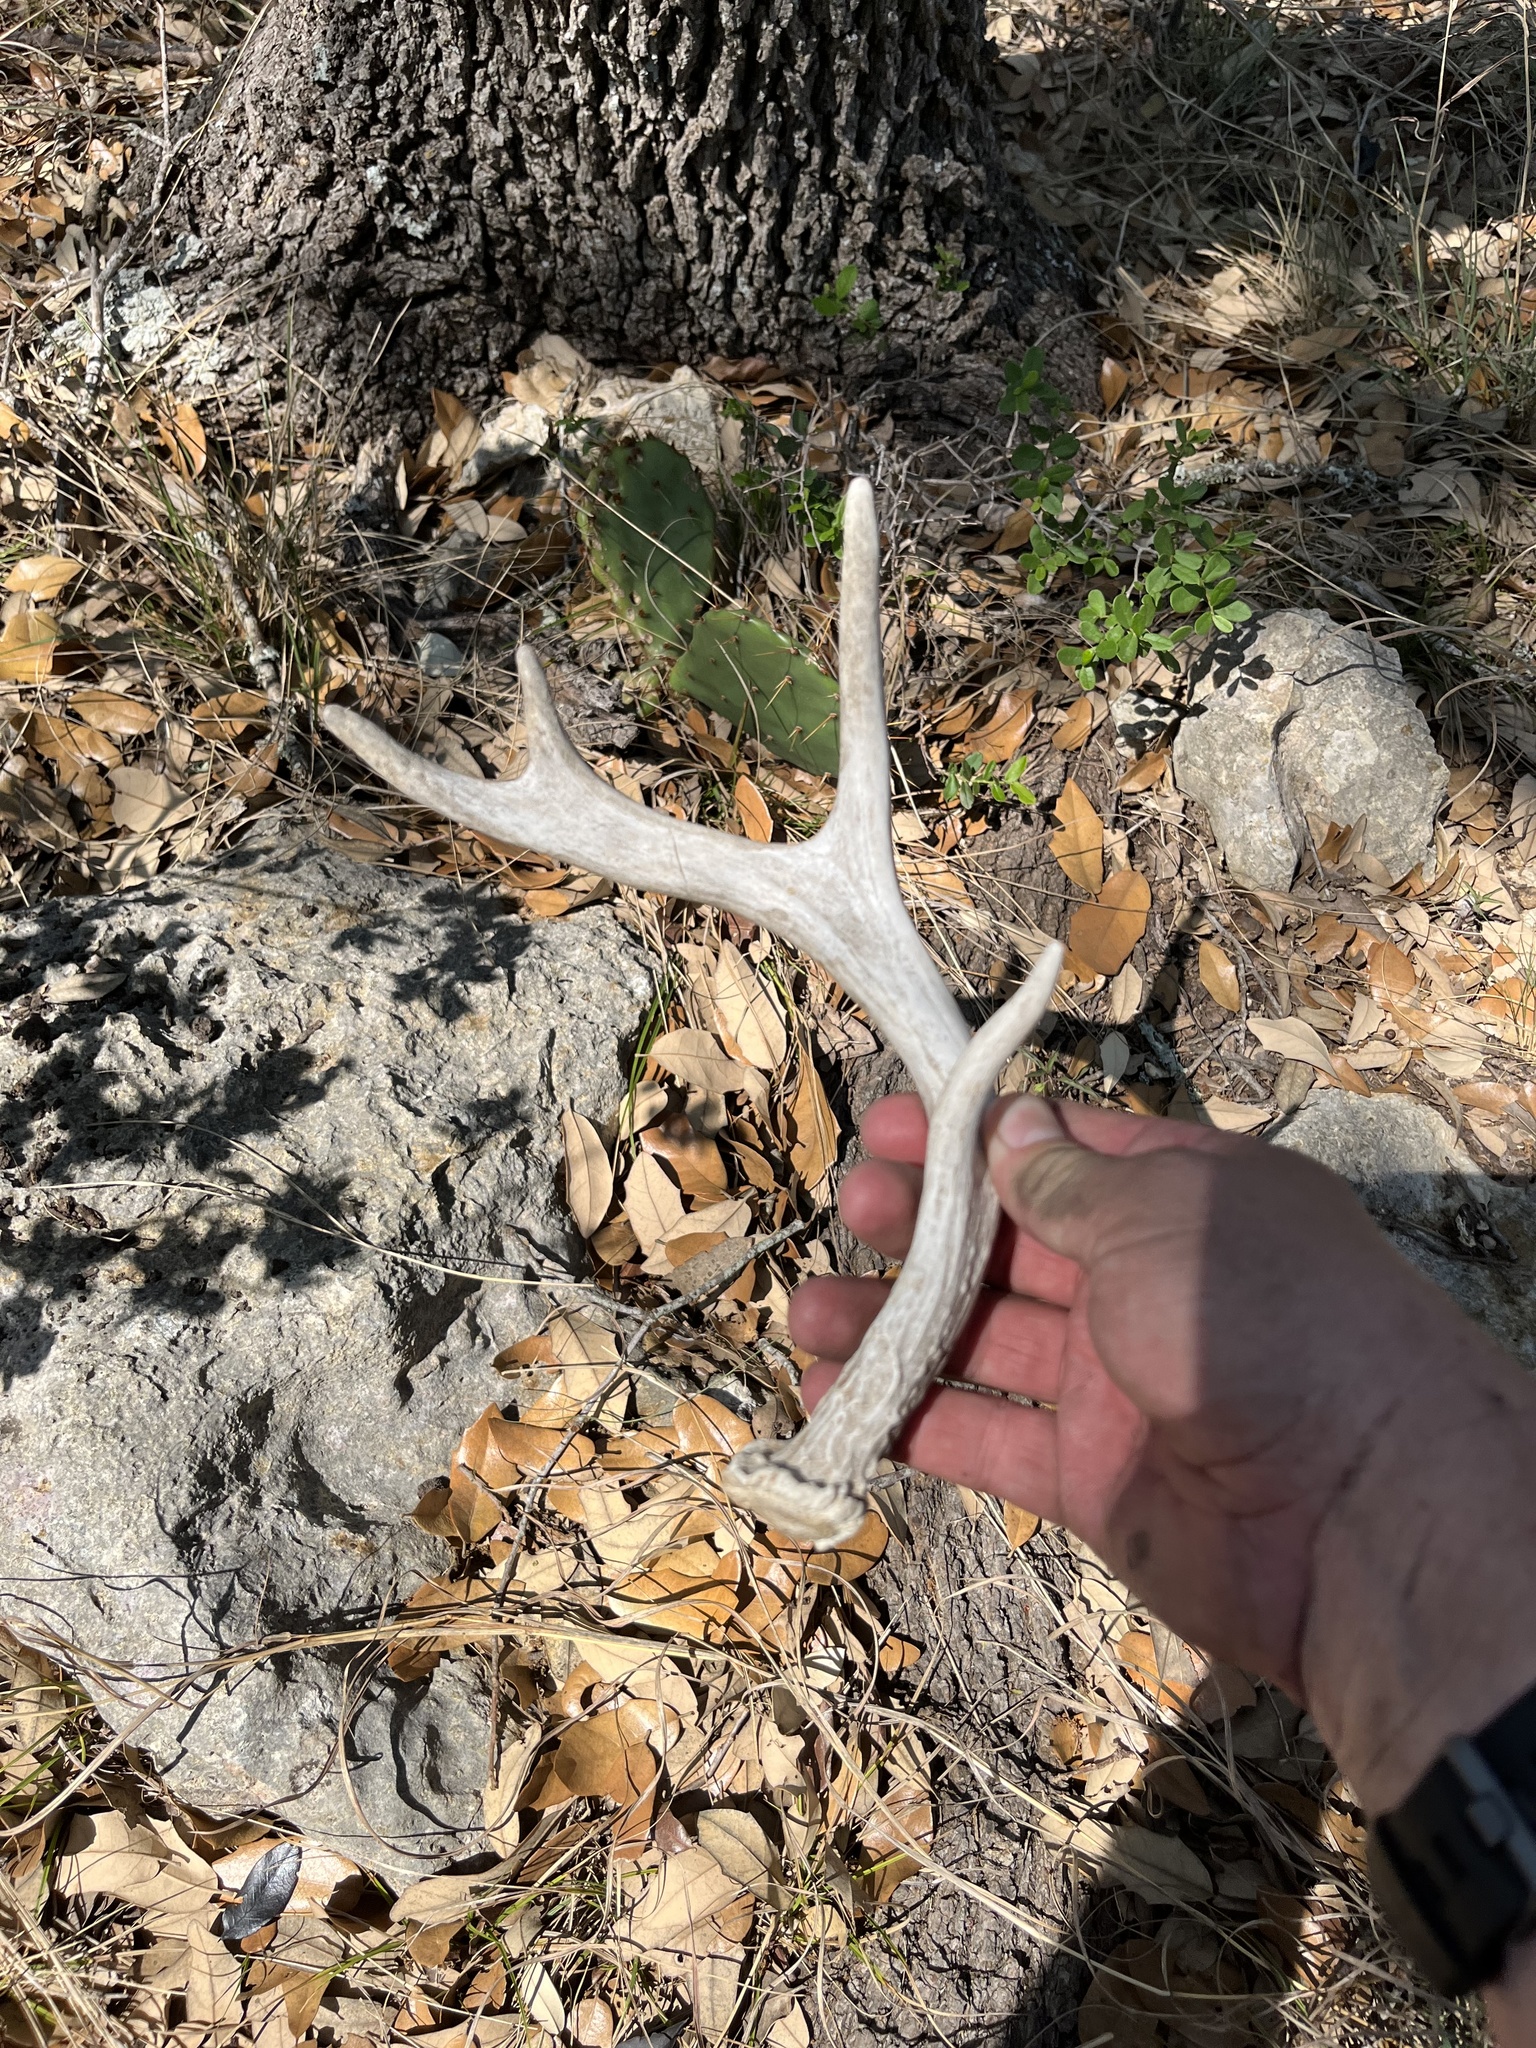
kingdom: Animalia
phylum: Chordata
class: Mammalia
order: Artiodactyla
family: Cervidae
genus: Odocoileus
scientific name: Odocoileus virginianus
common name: White-tailed deer
